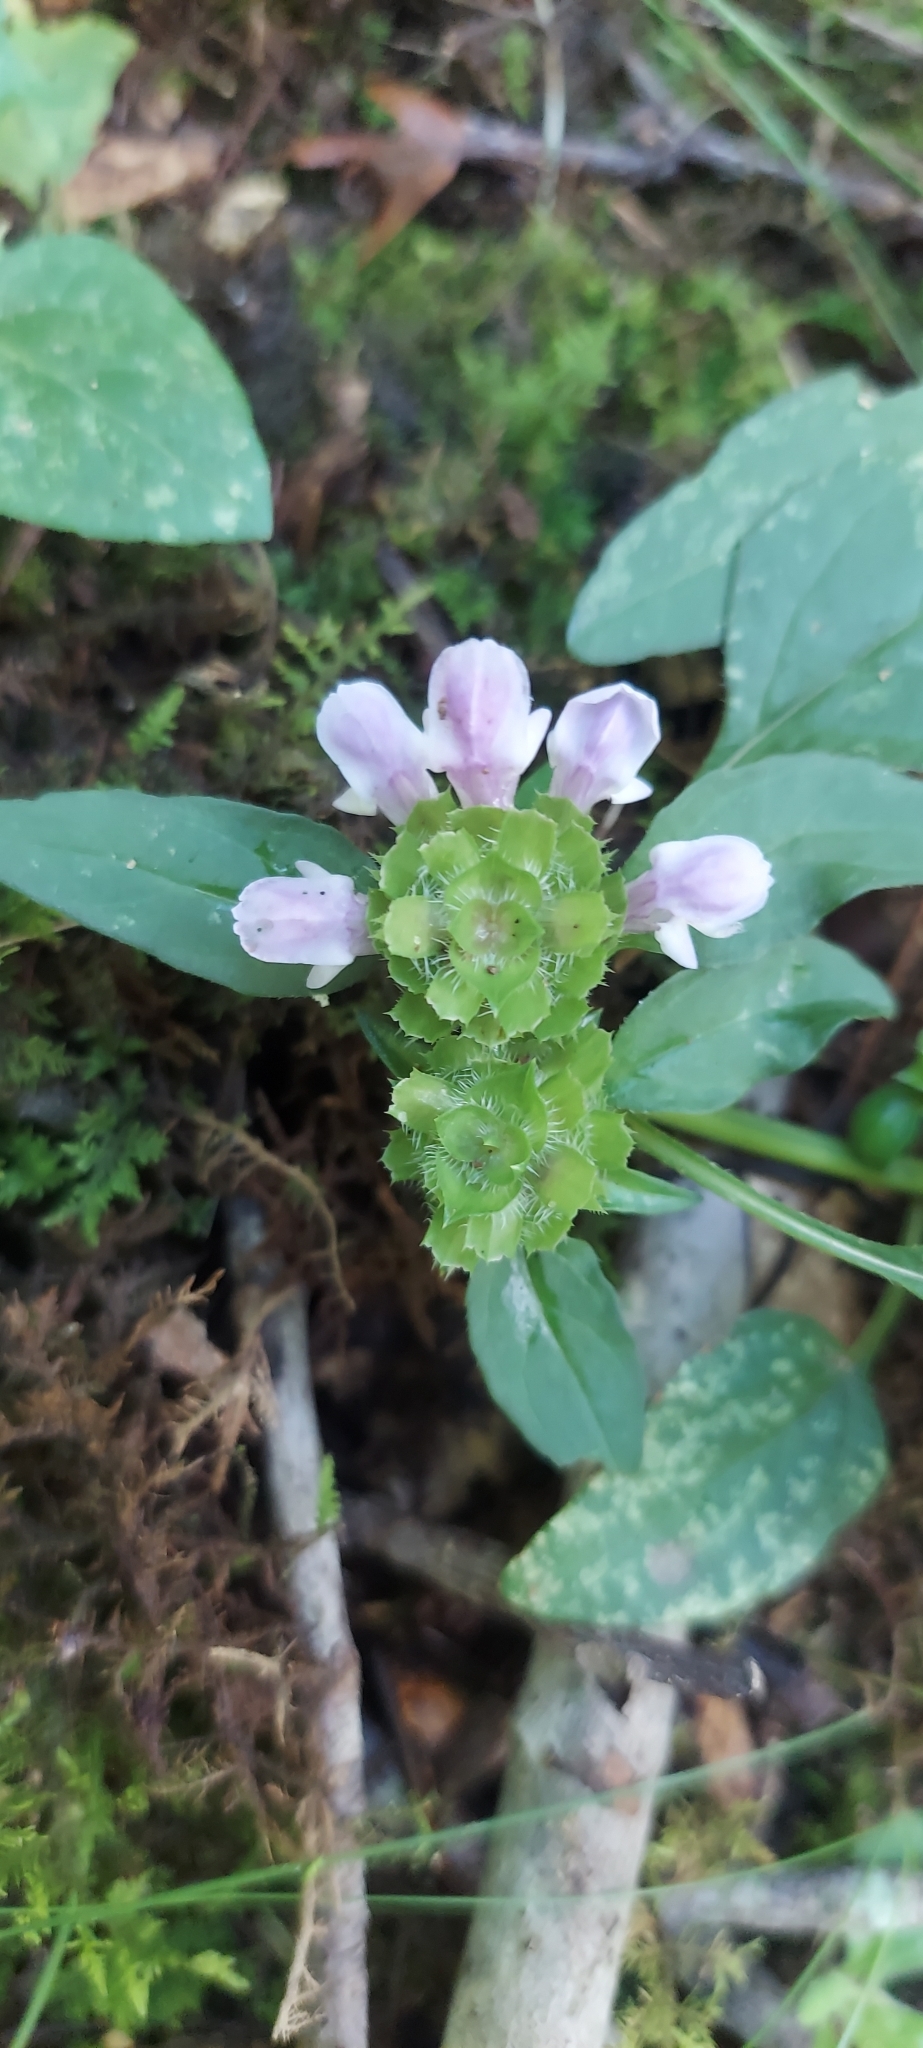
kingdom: Plantae
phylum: Tracheophyta
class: Magnoliopsida
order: Lamiales
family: Lamiaceae
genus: Prunella
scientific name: Prunella vulgaris
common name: Heal-all
